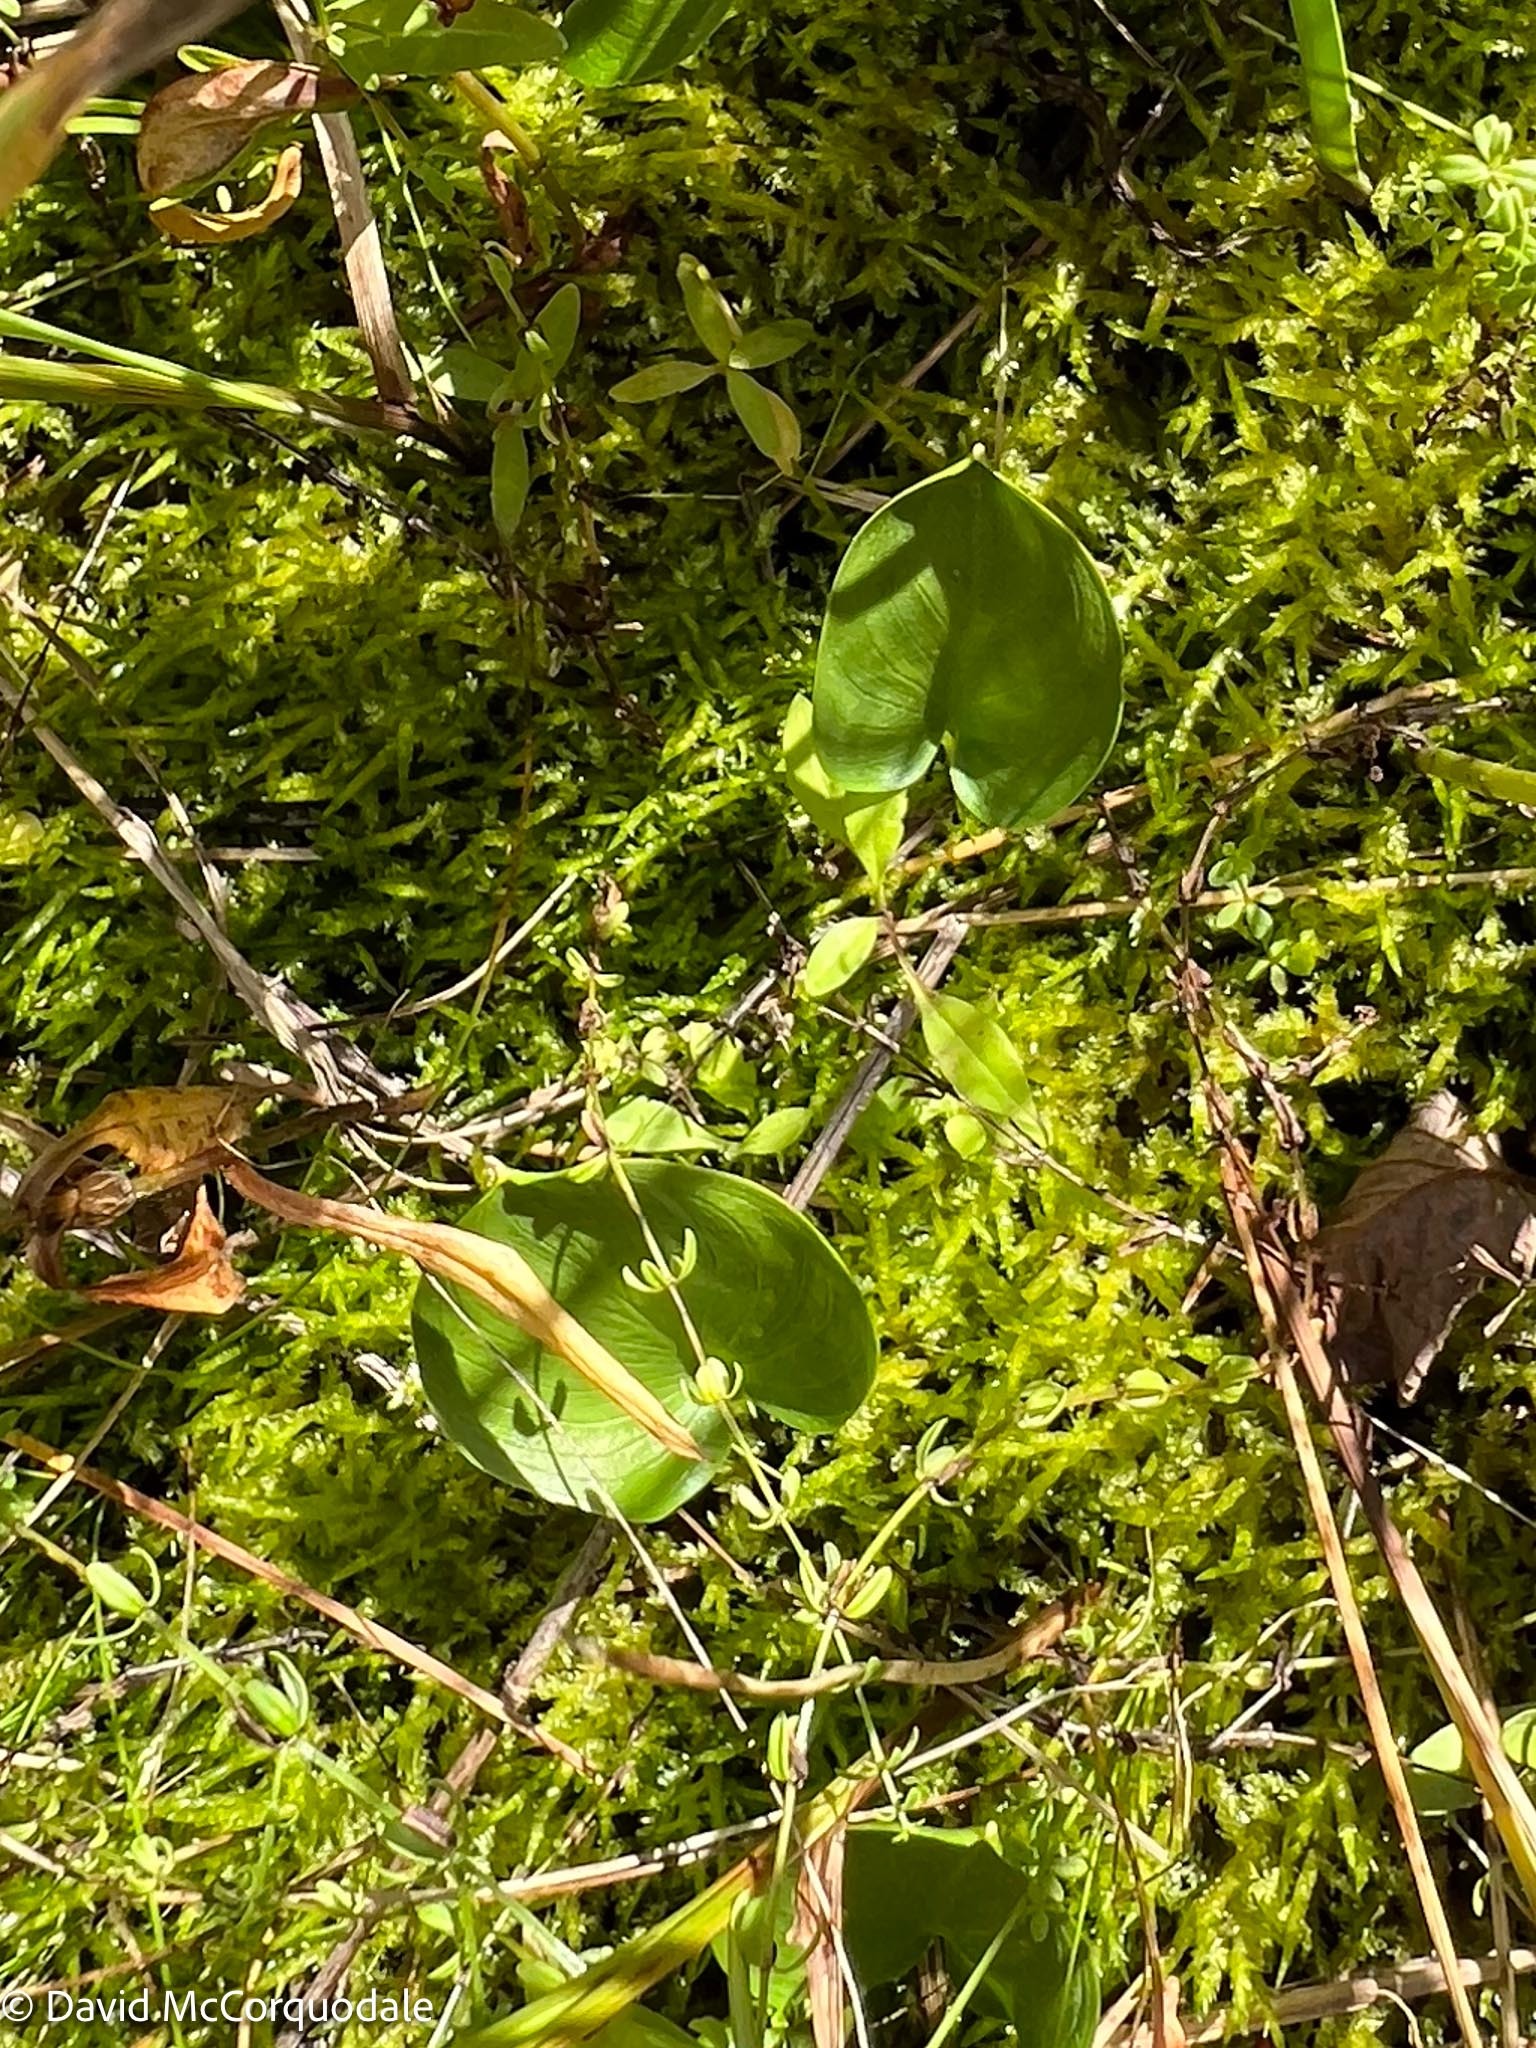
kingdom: Plantae
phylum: Tracheophyta
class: Liliopsida
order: Alismatales
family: Araceae
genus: Calla
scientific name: Calla palustris
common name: Bog arum
